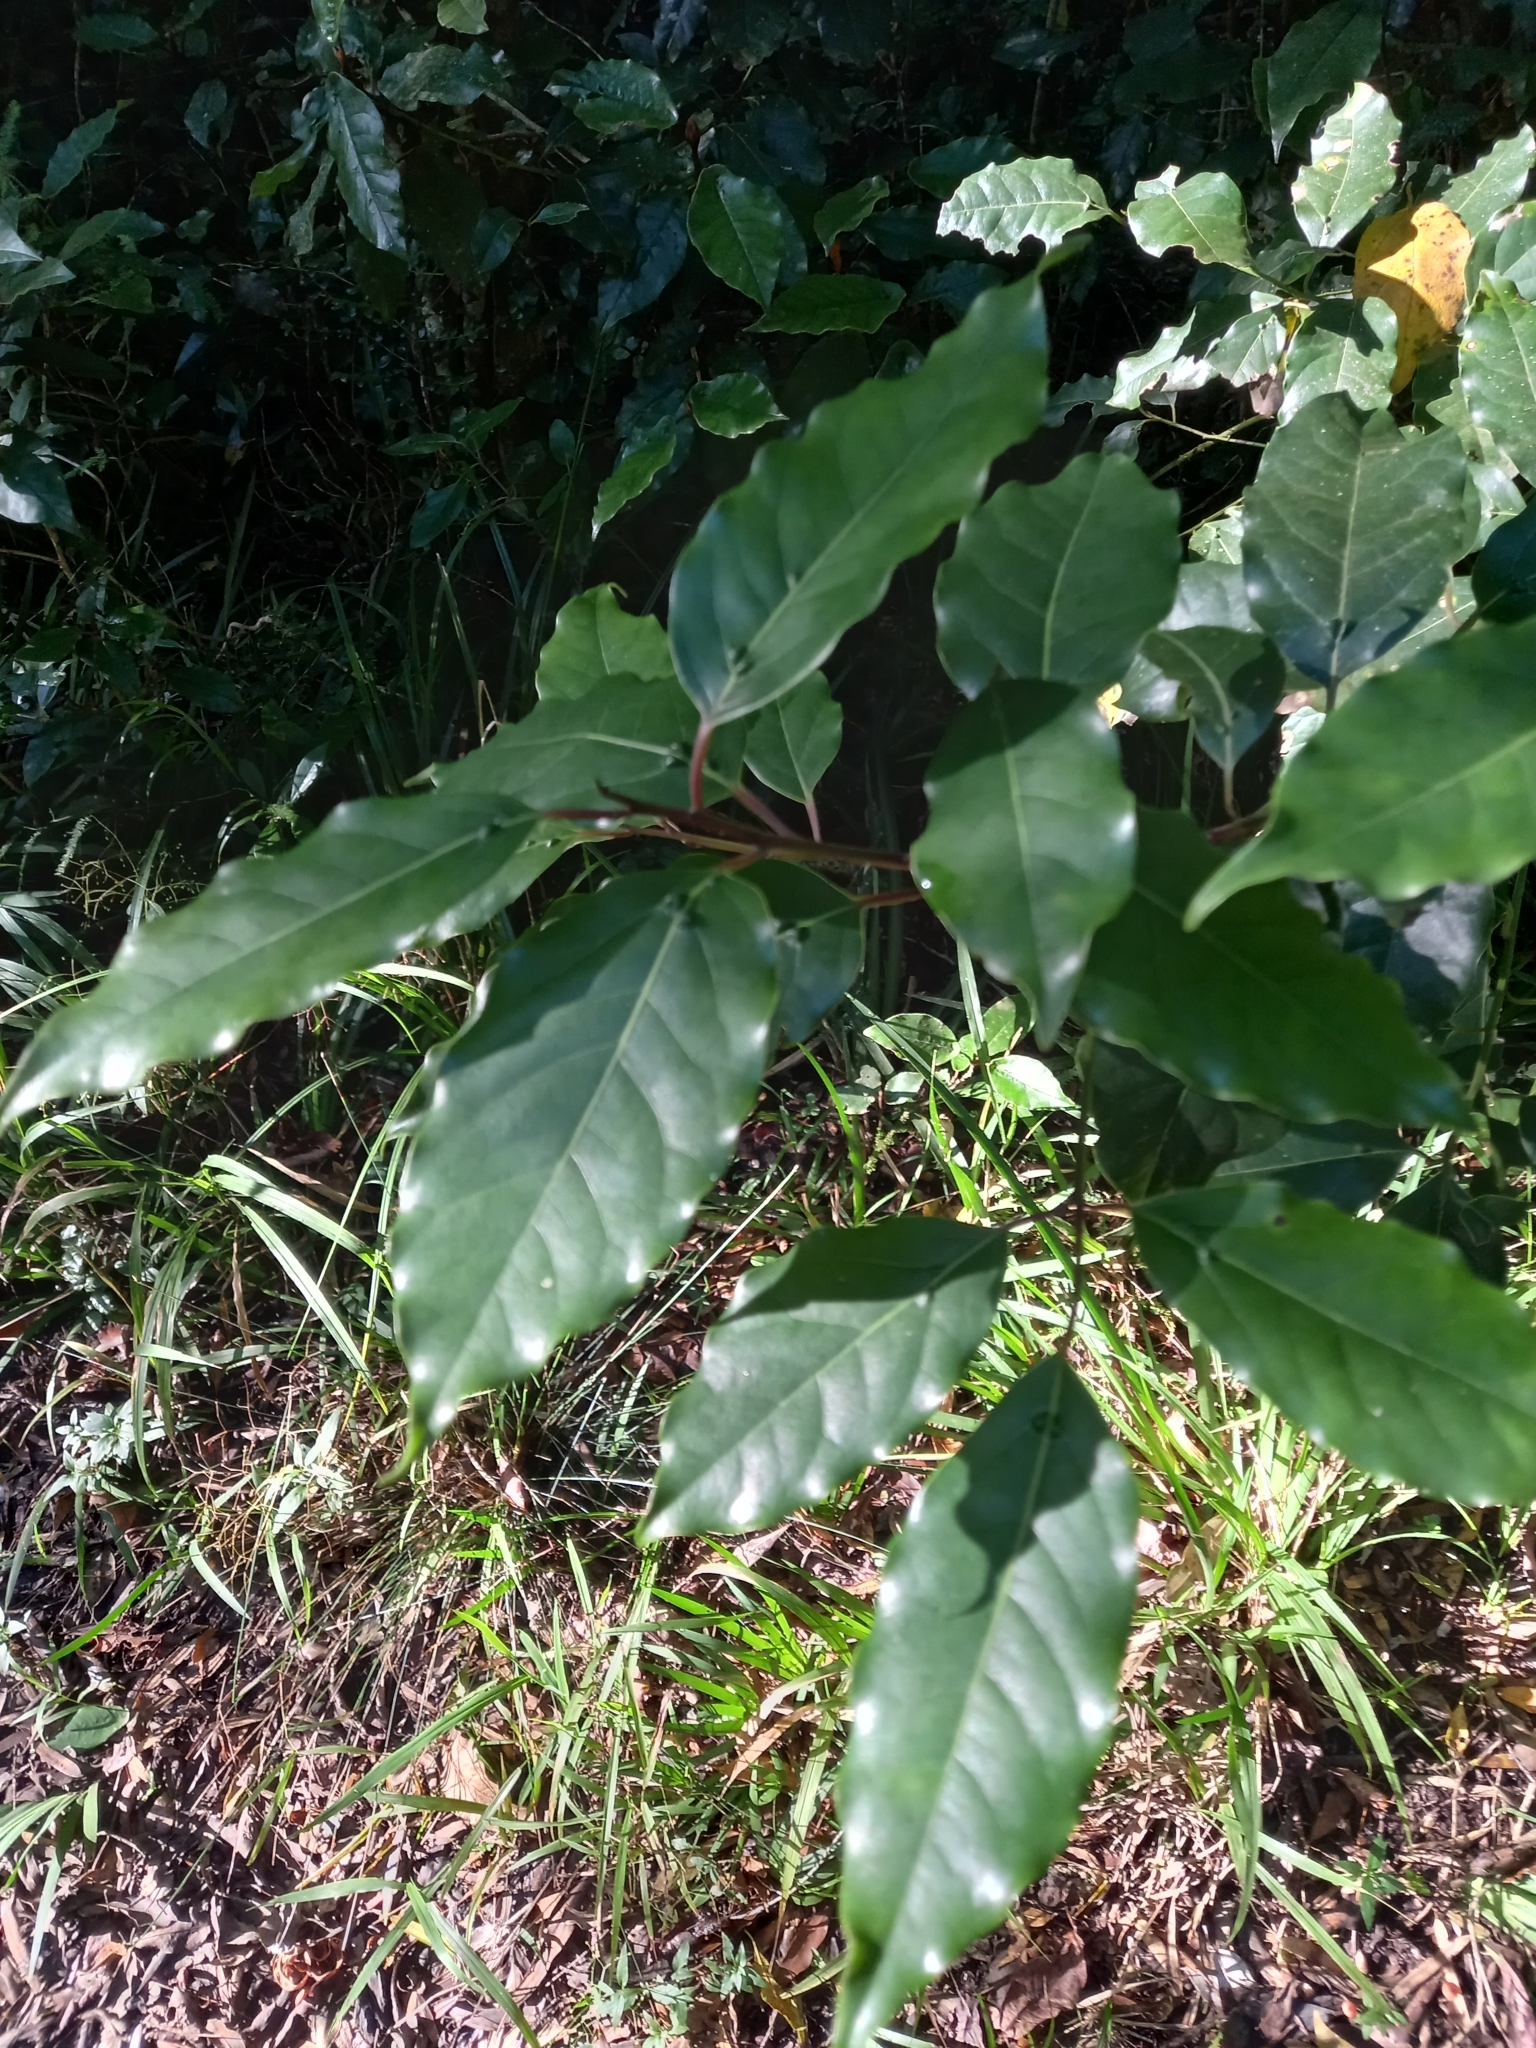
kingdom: Plantae
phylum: Tracheophyta
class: Magnoliopsida
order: Laurales
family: Lauraceae
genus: Ocotea
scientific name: Ocotea bullata
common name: Black stinkwood
